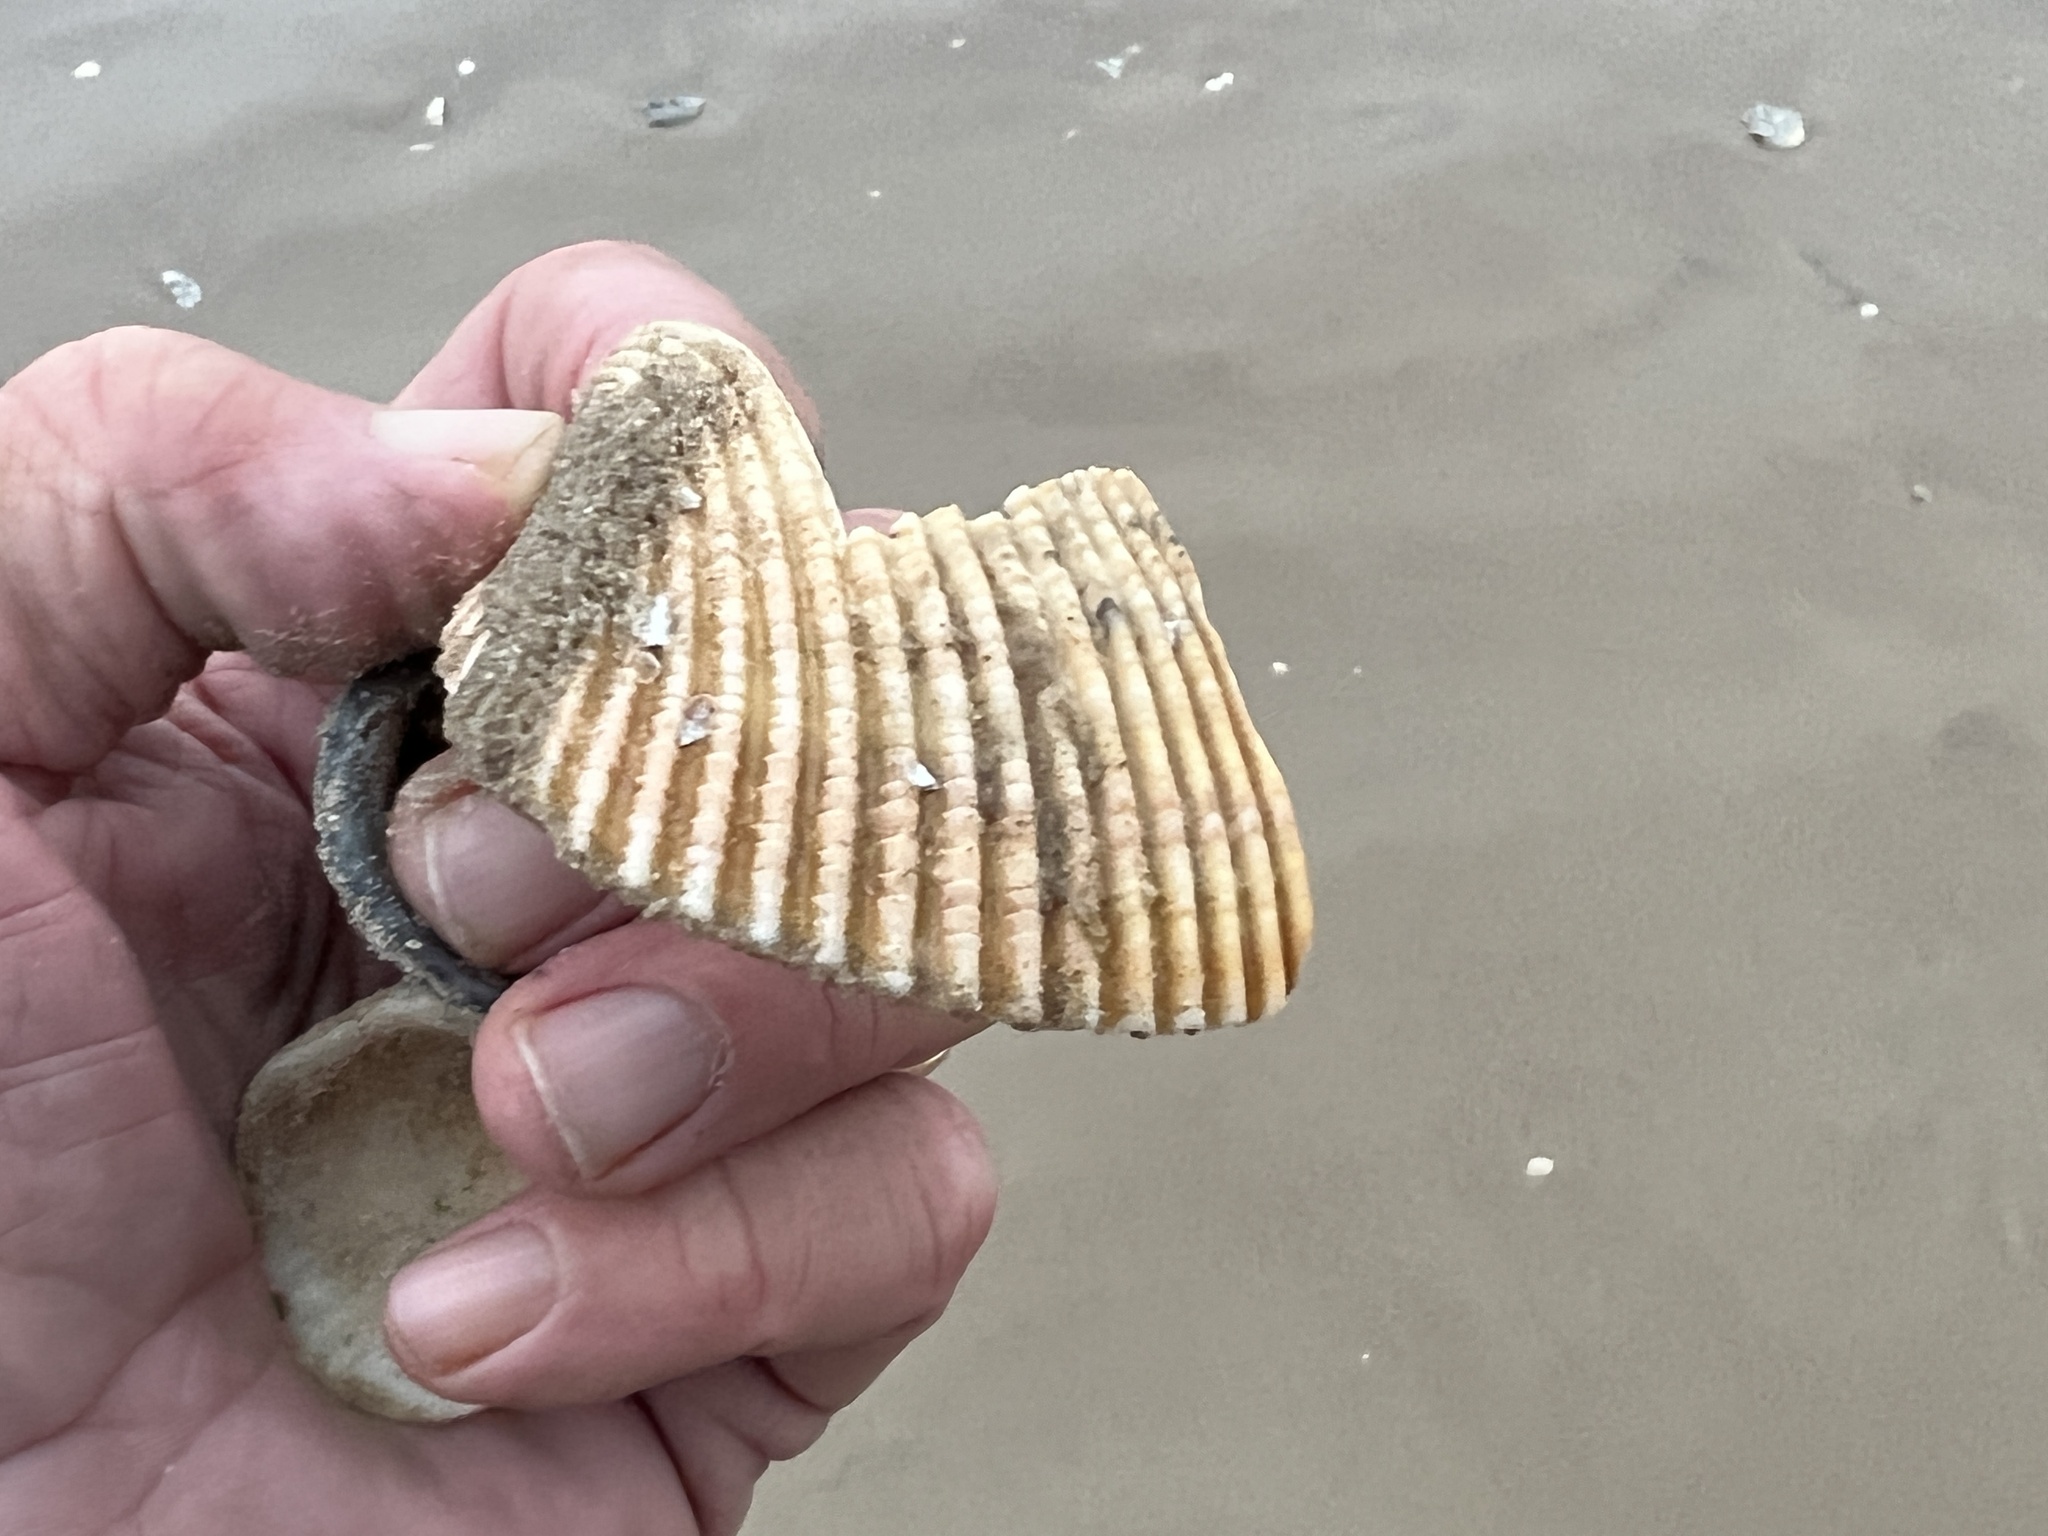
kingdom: Animalia
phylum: Mollusca
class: Bivalvia
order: Cardiida
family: Cardiidae
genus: Dinocardium
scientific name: Dinocardium robustum
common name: Atlantic giant cockle
